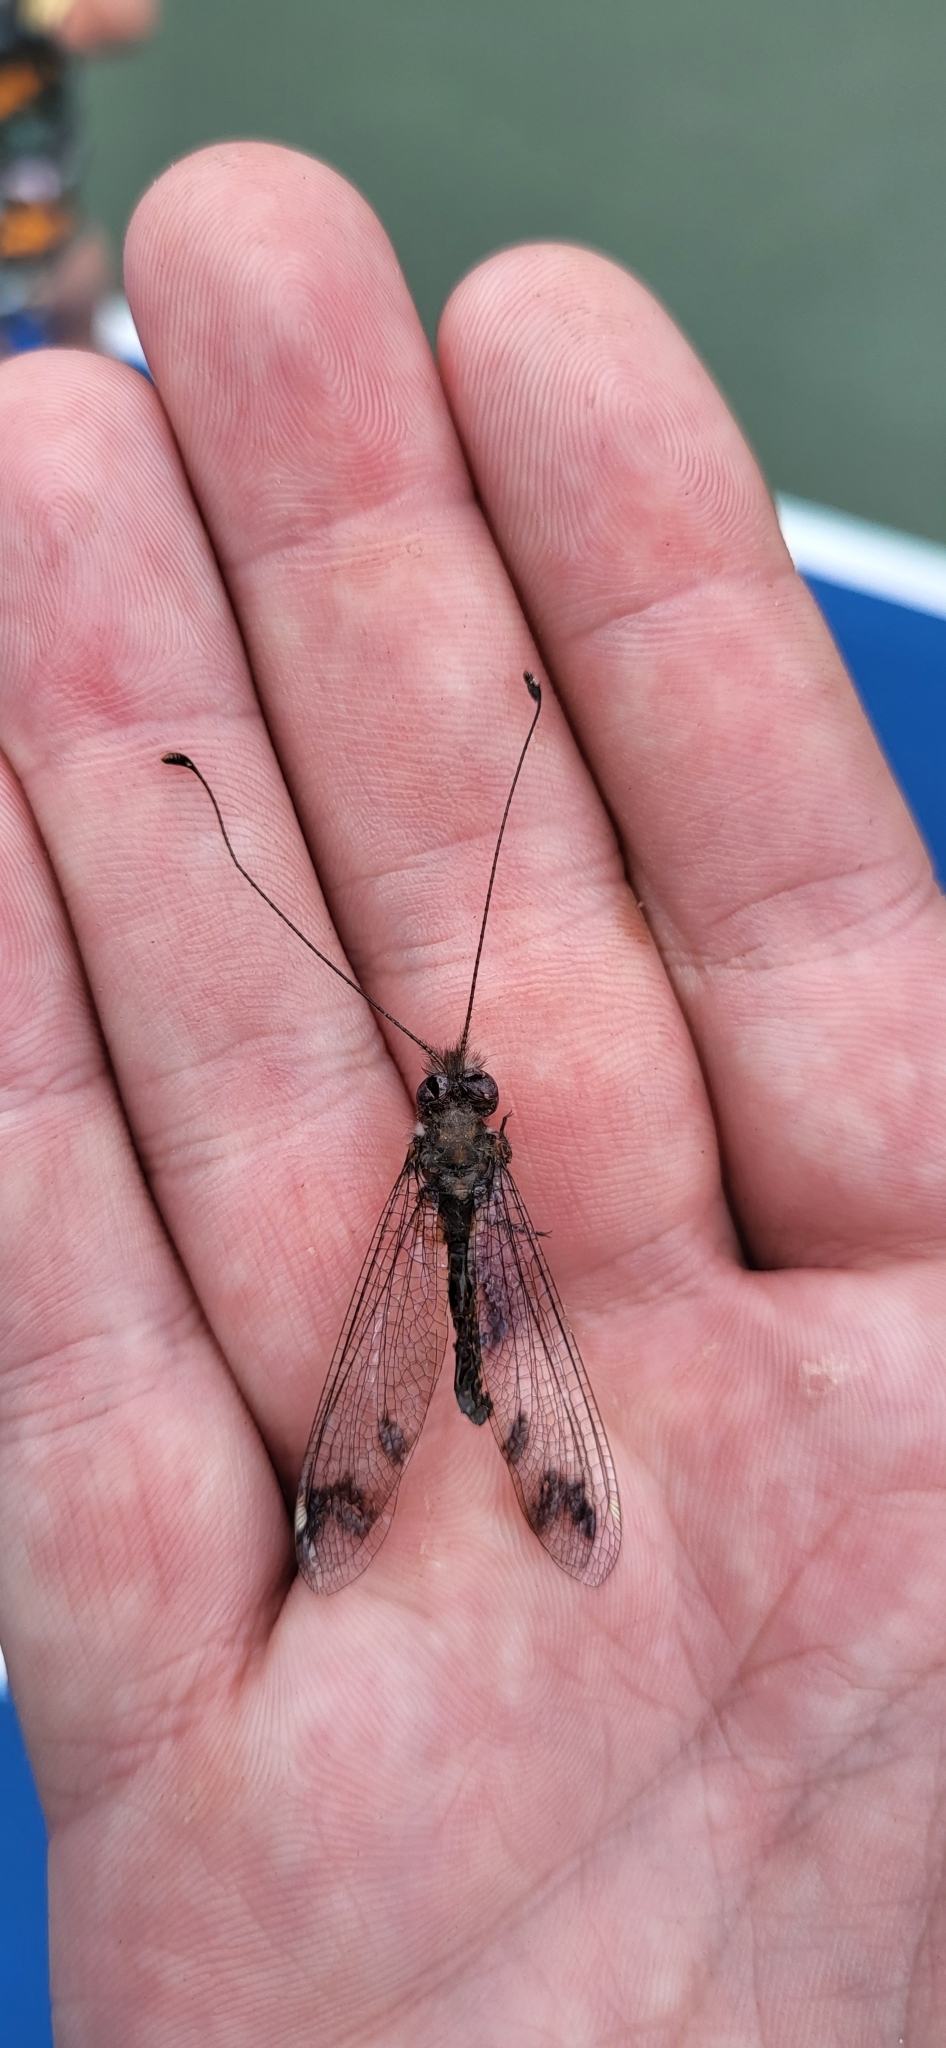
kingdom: Animalia
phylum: Arthropoda
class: Insecta
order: Neuroptera
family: Ascalaphidae
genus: Ululodes
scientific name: Ululodes quadripunctatus
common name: Four-spotted owlfly
